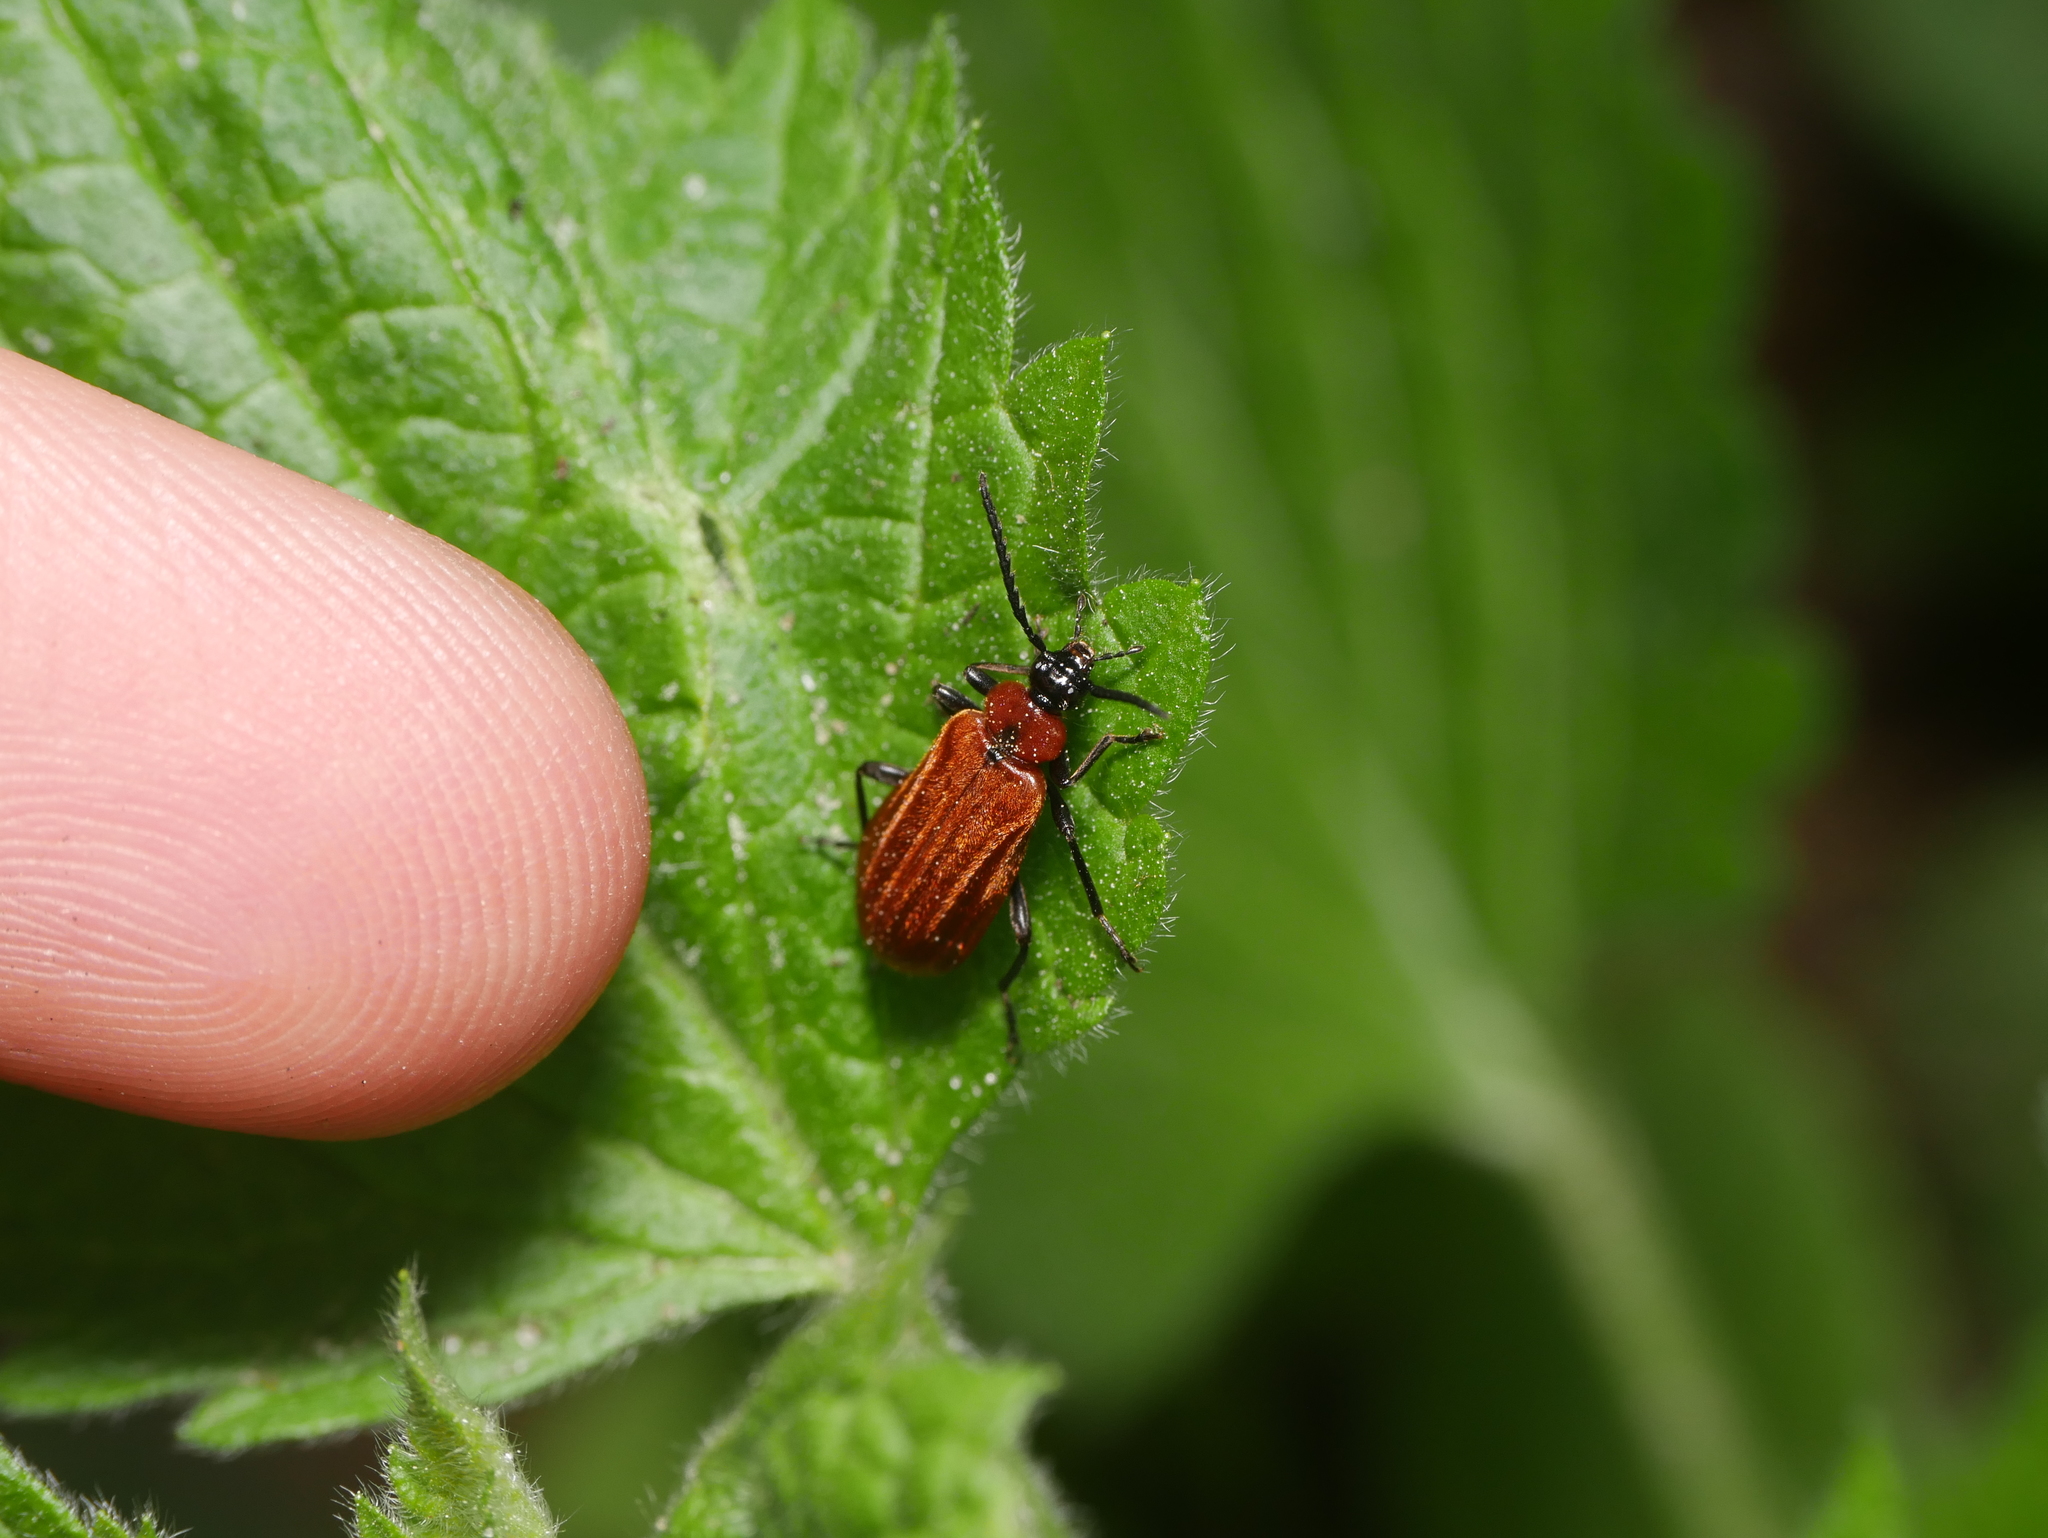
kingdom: Animalia
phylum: Arthropoda
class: Insecta
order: Coleoptera
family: Pyrochroidae
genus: Schizotus
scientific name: Schizotus pectinicornis
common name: Scarce cardinal beetle
